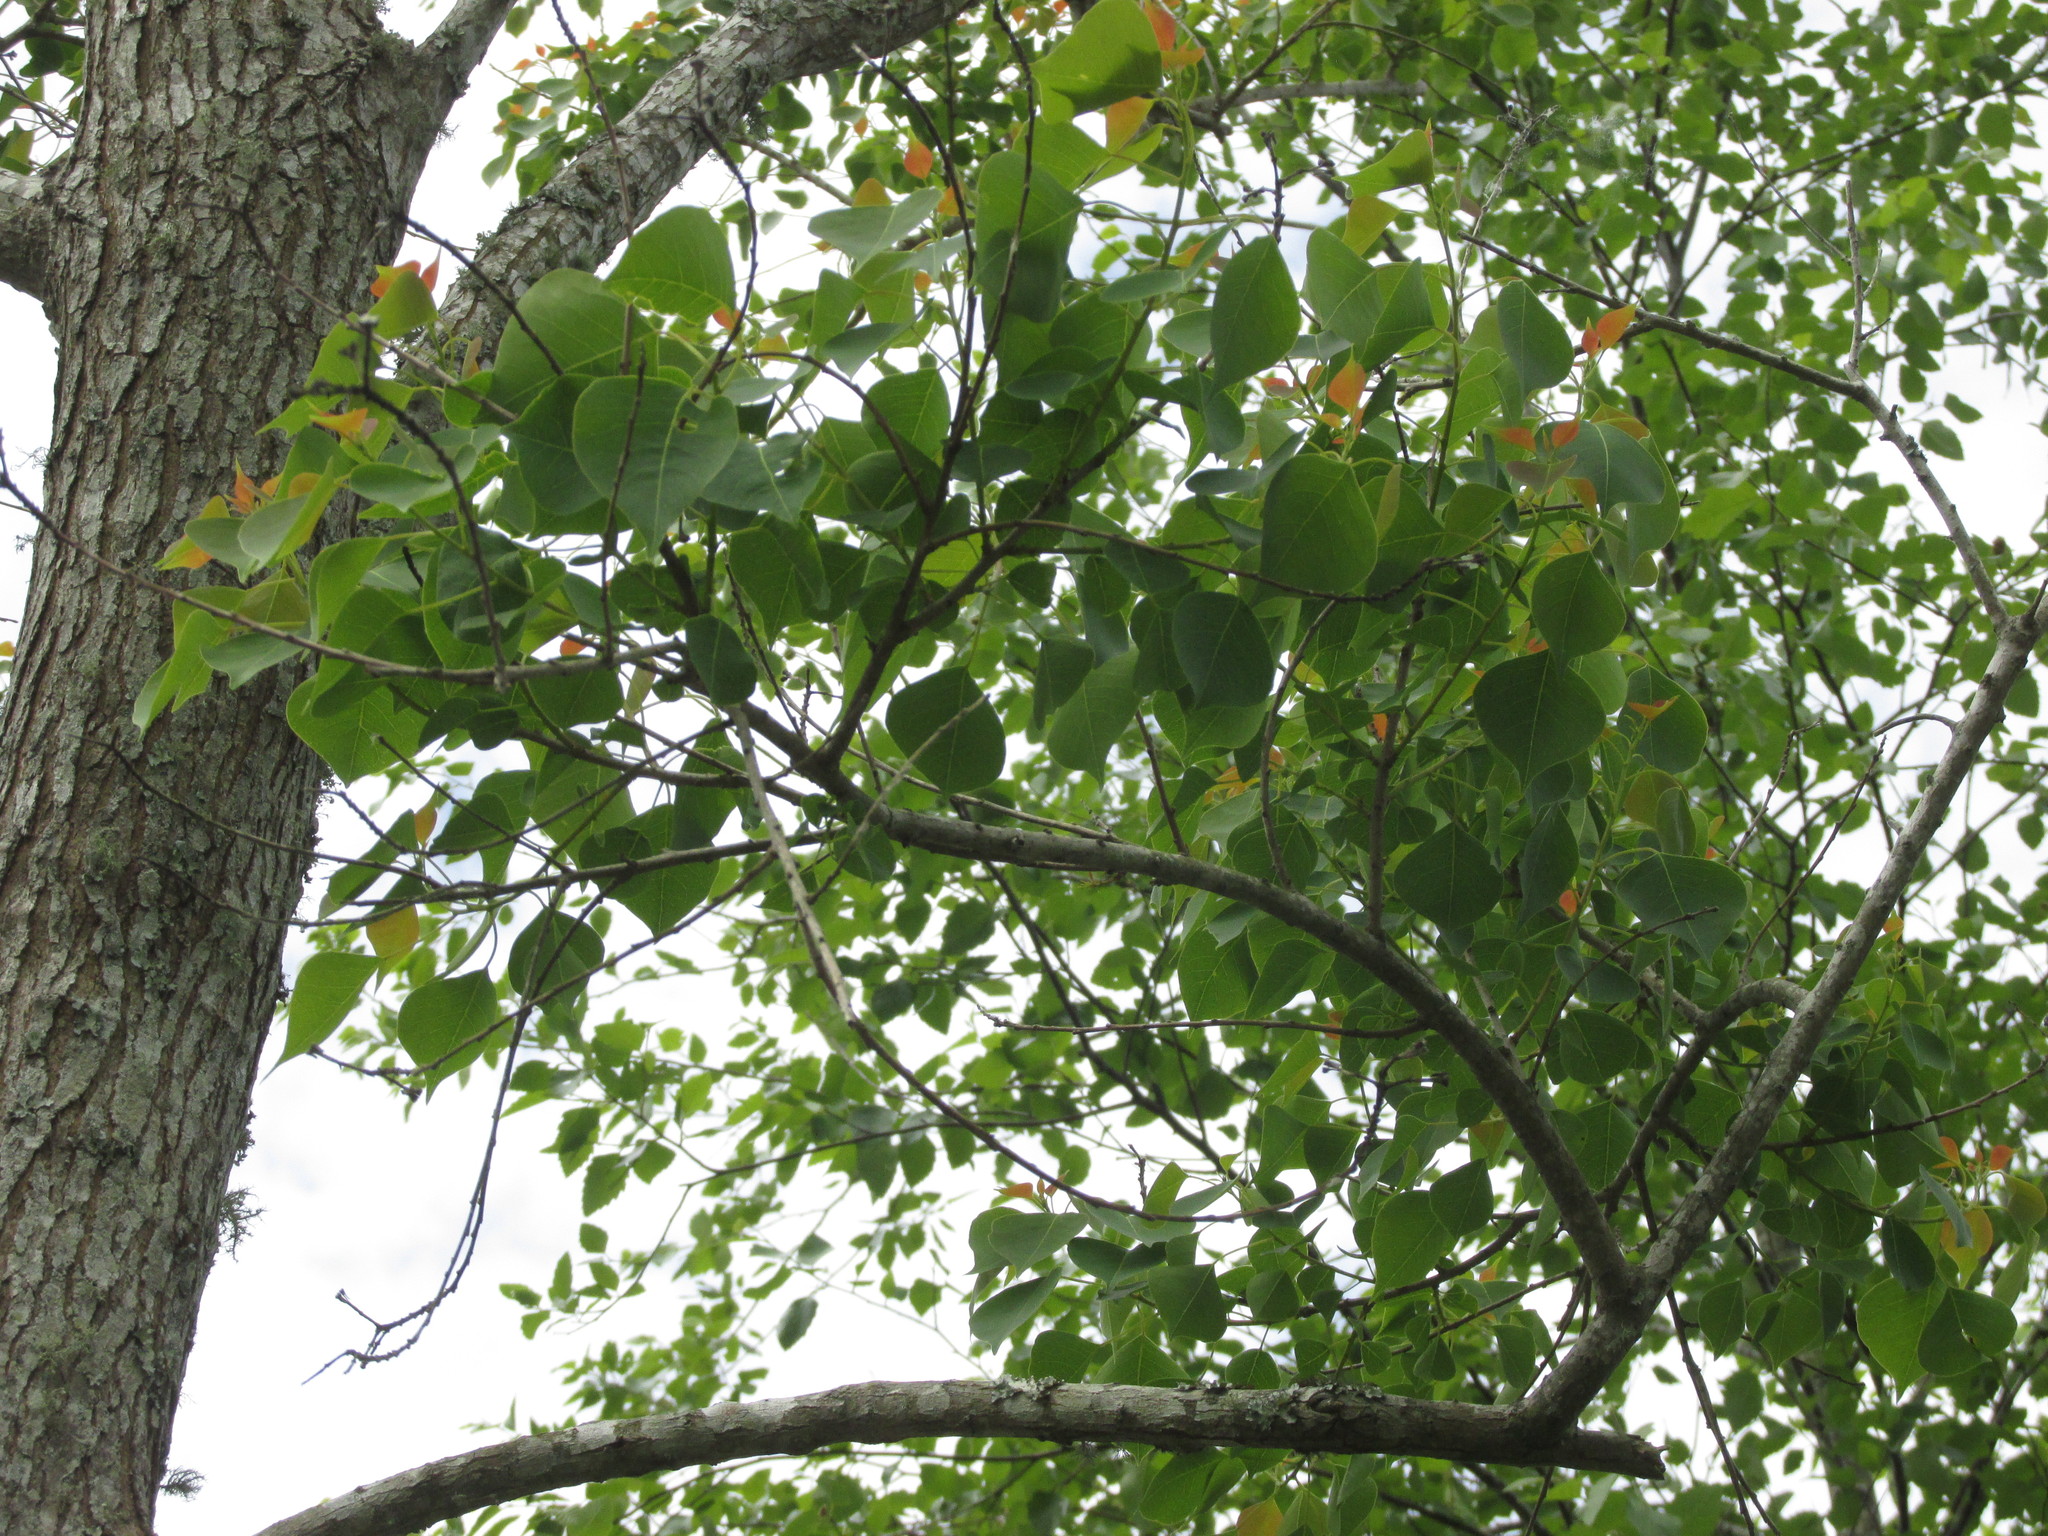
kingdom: Plantae
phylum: Tracheophyta
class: Magnoliopsida
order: Malpighiales
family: Euphorbiaceae
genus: Triadica
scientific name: Triadica sebifera
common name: Chinese tallow
